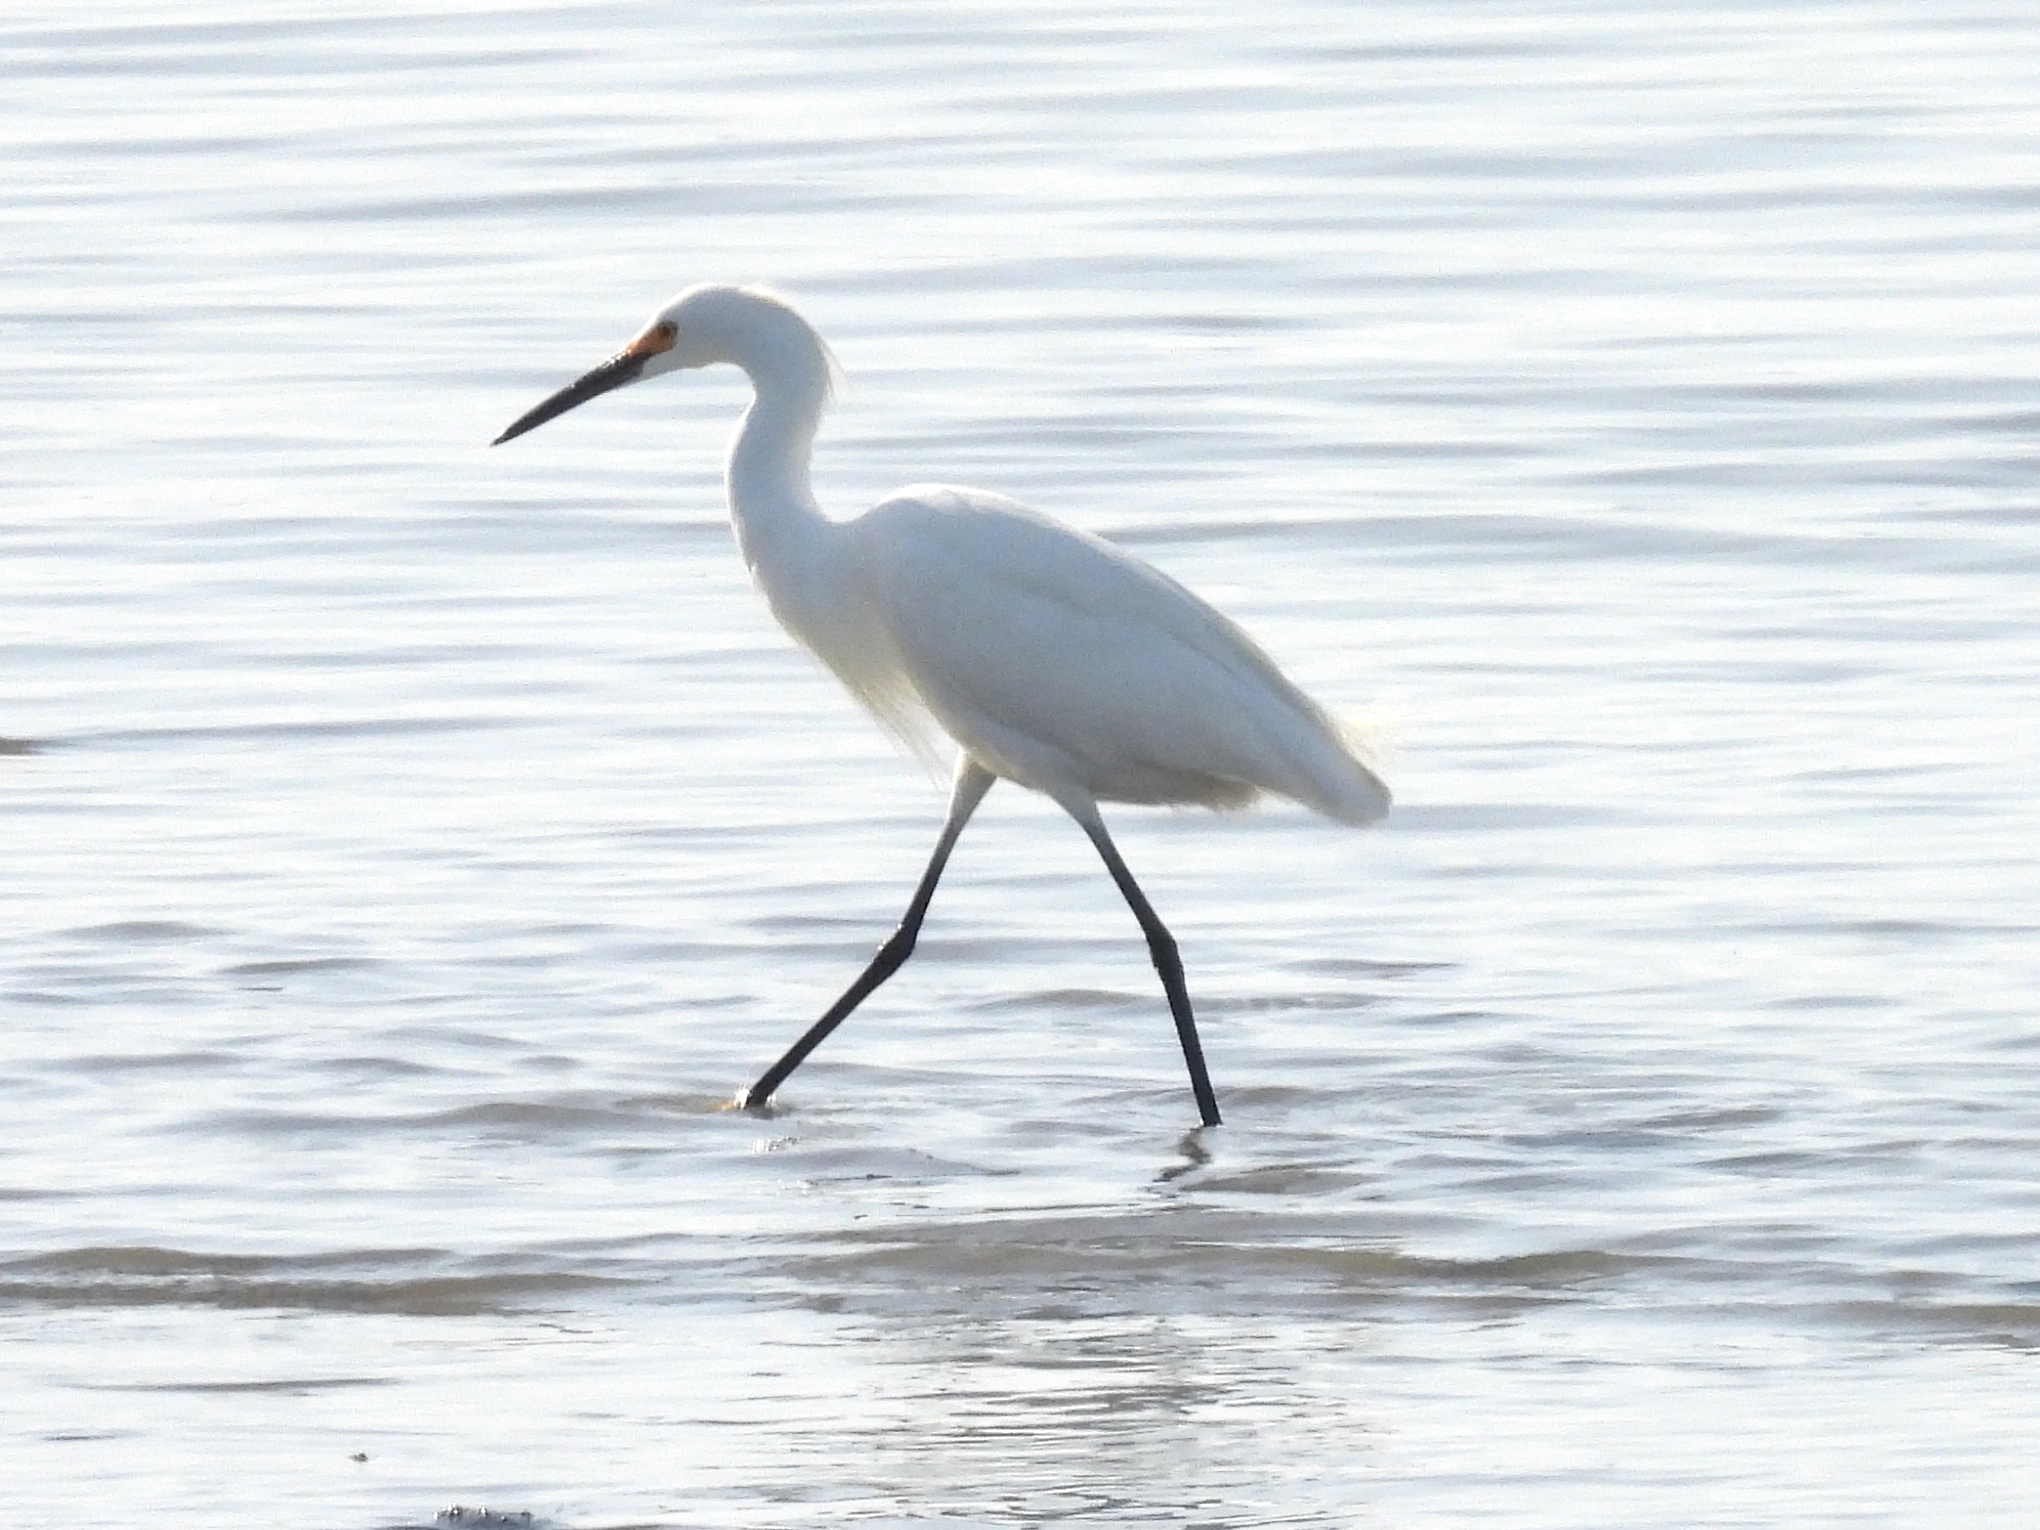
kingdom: Animalia
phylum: Chordata
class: Aves
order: Pelecaniformes
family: Ardeidae
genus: Egretta
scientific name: Egretta thula
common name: Snowy egret
